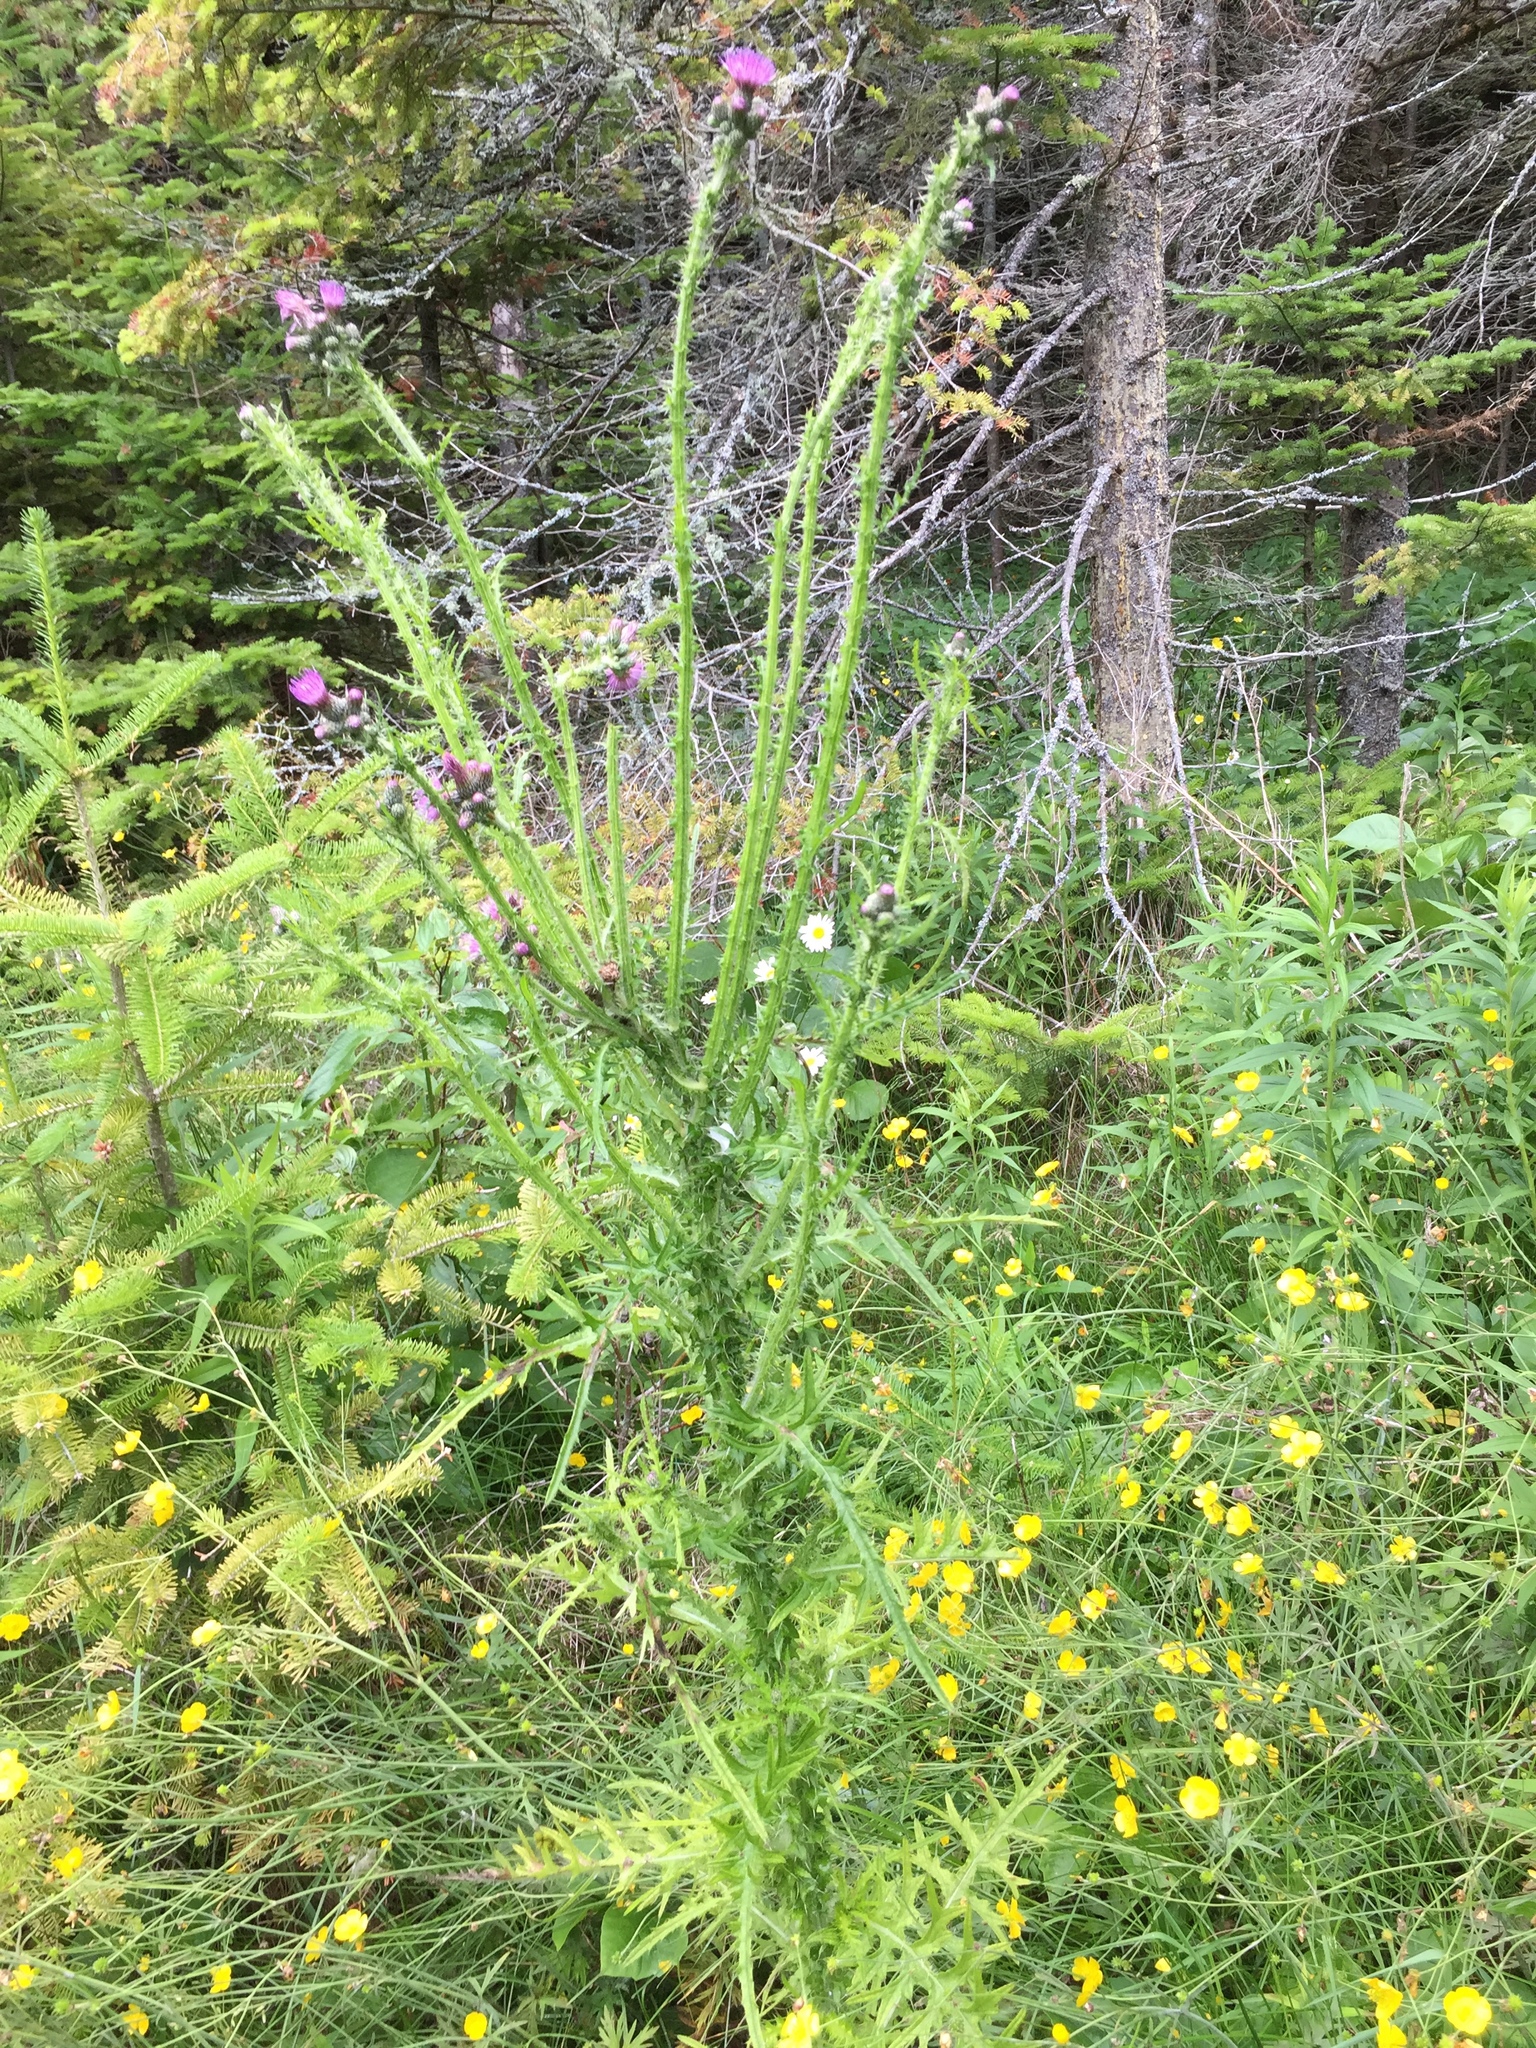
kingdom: Plantae
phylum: Tracheophyta
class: Magnoliopsida
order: Asterales
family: Asteraceae
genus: Cirsium
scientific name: Cirsium palustre
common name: Marsh thistle
